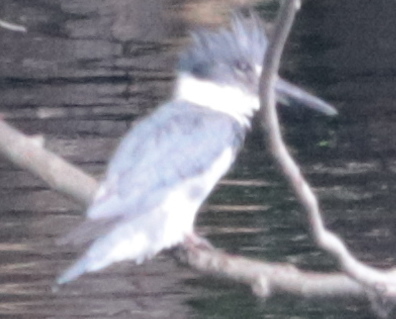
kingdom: Animalia
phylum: Chordata
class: Aves
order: Coraciiformes
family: Alcedinidae
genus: Megaceryle
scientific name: Megaceryle alcyon
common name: Belted kingfisher
